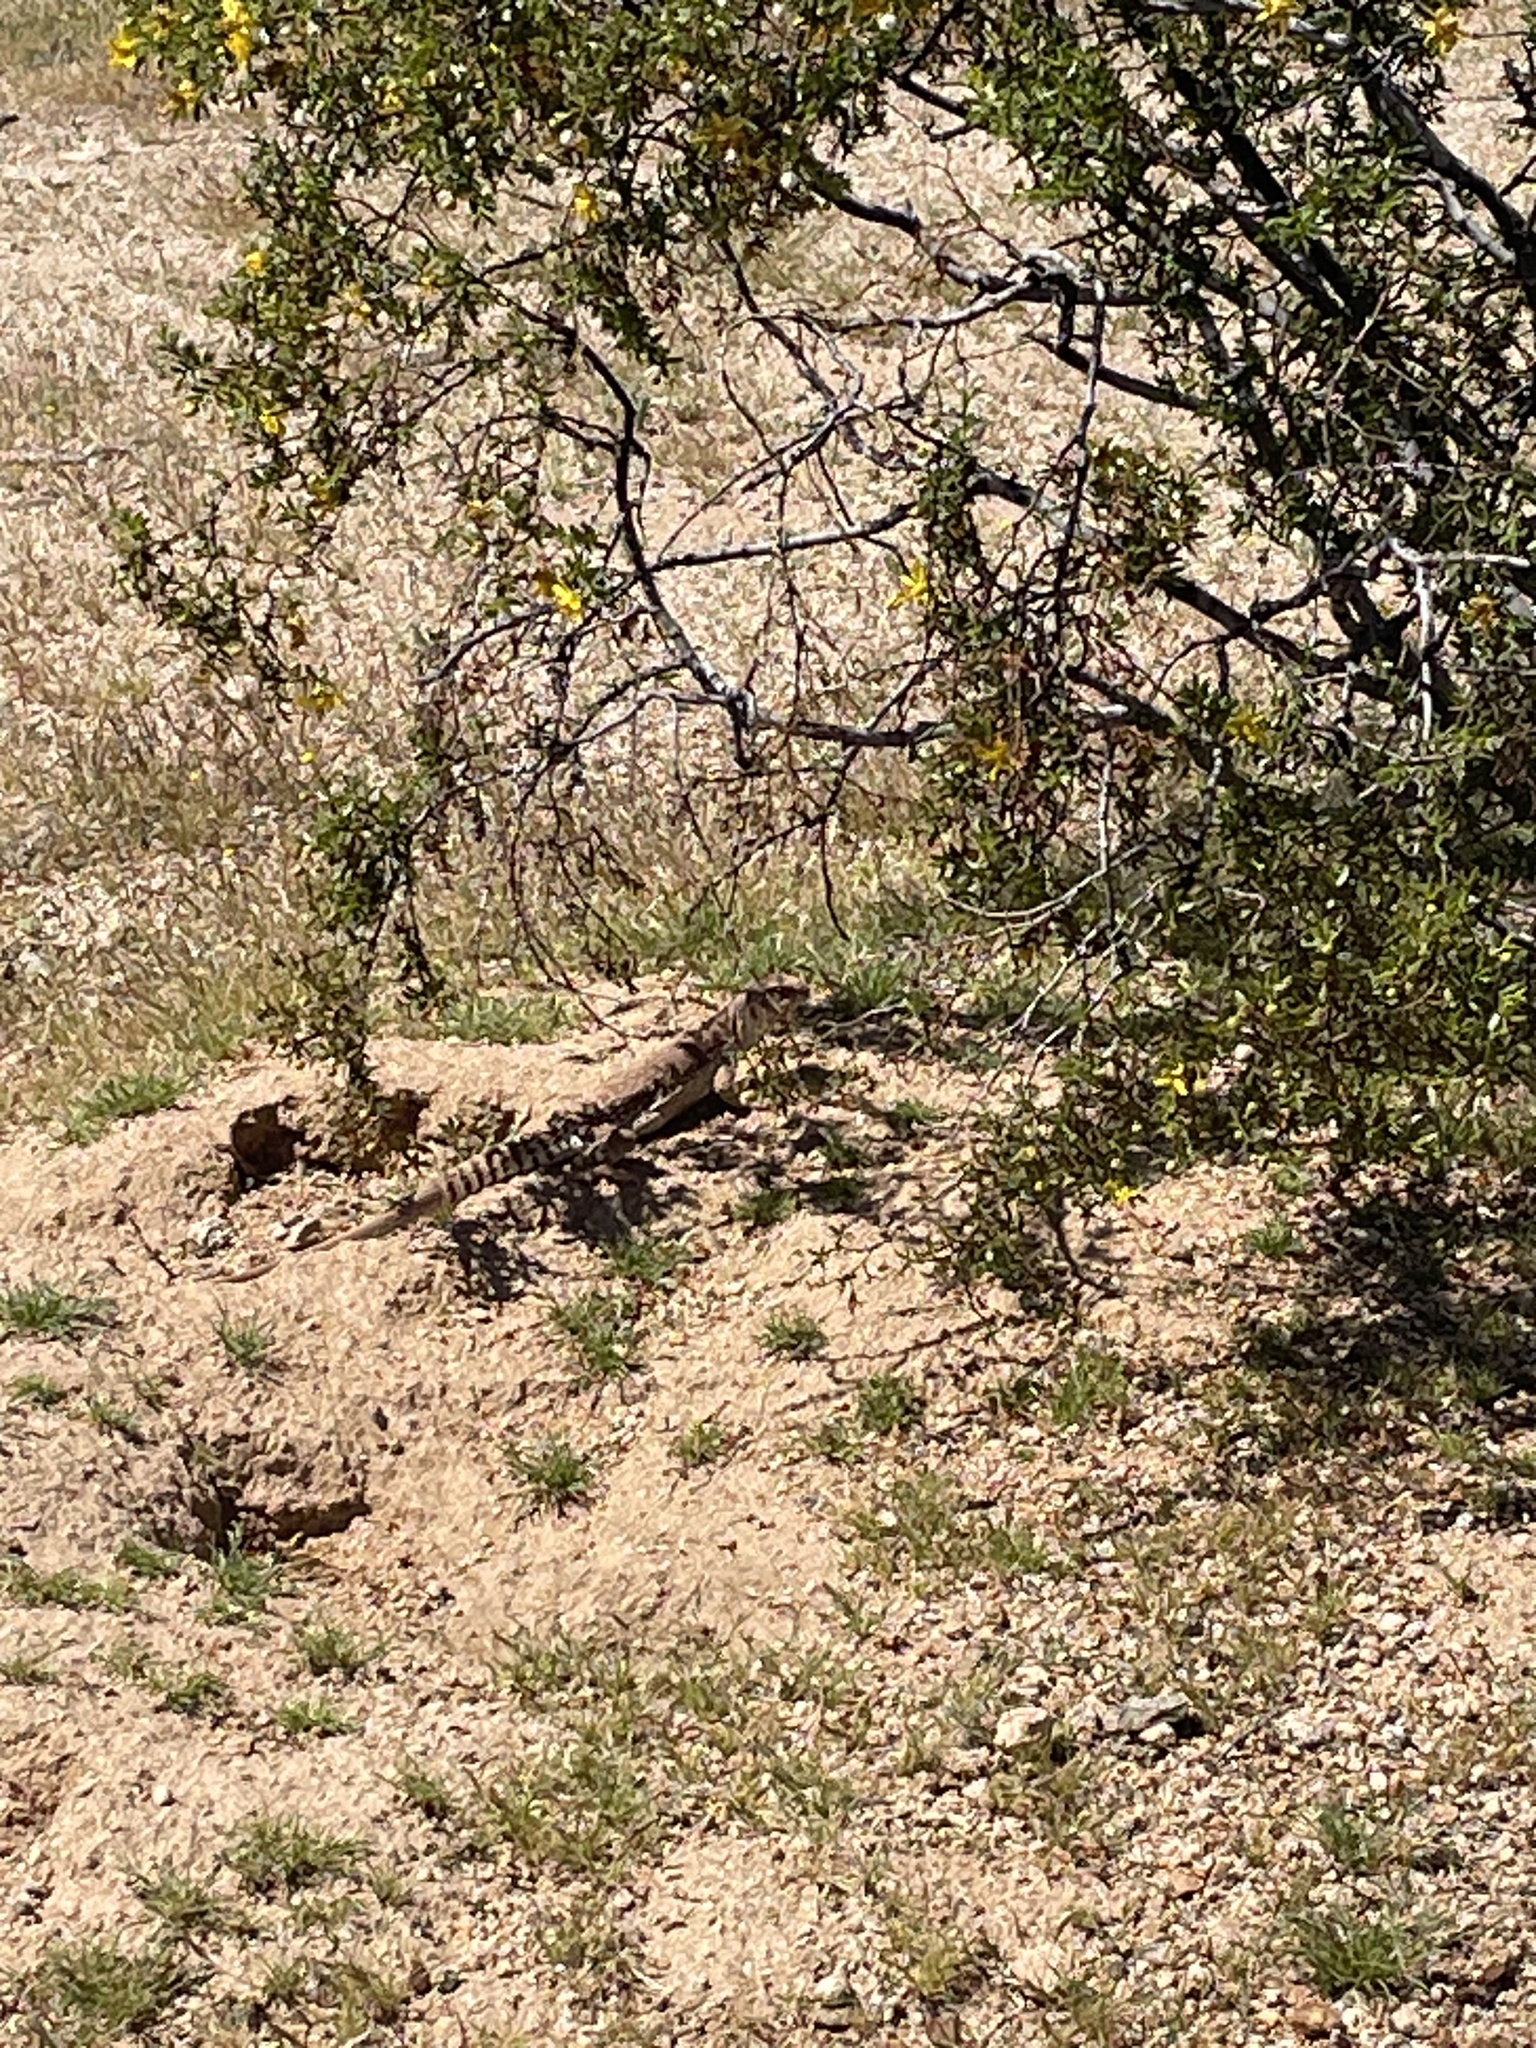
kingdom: Animalia
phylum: Chordata
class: Squamata
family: Iguanidae
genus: Dipsosaurus
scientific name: Dipsosaurus dorsalis
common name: Desert iguana
